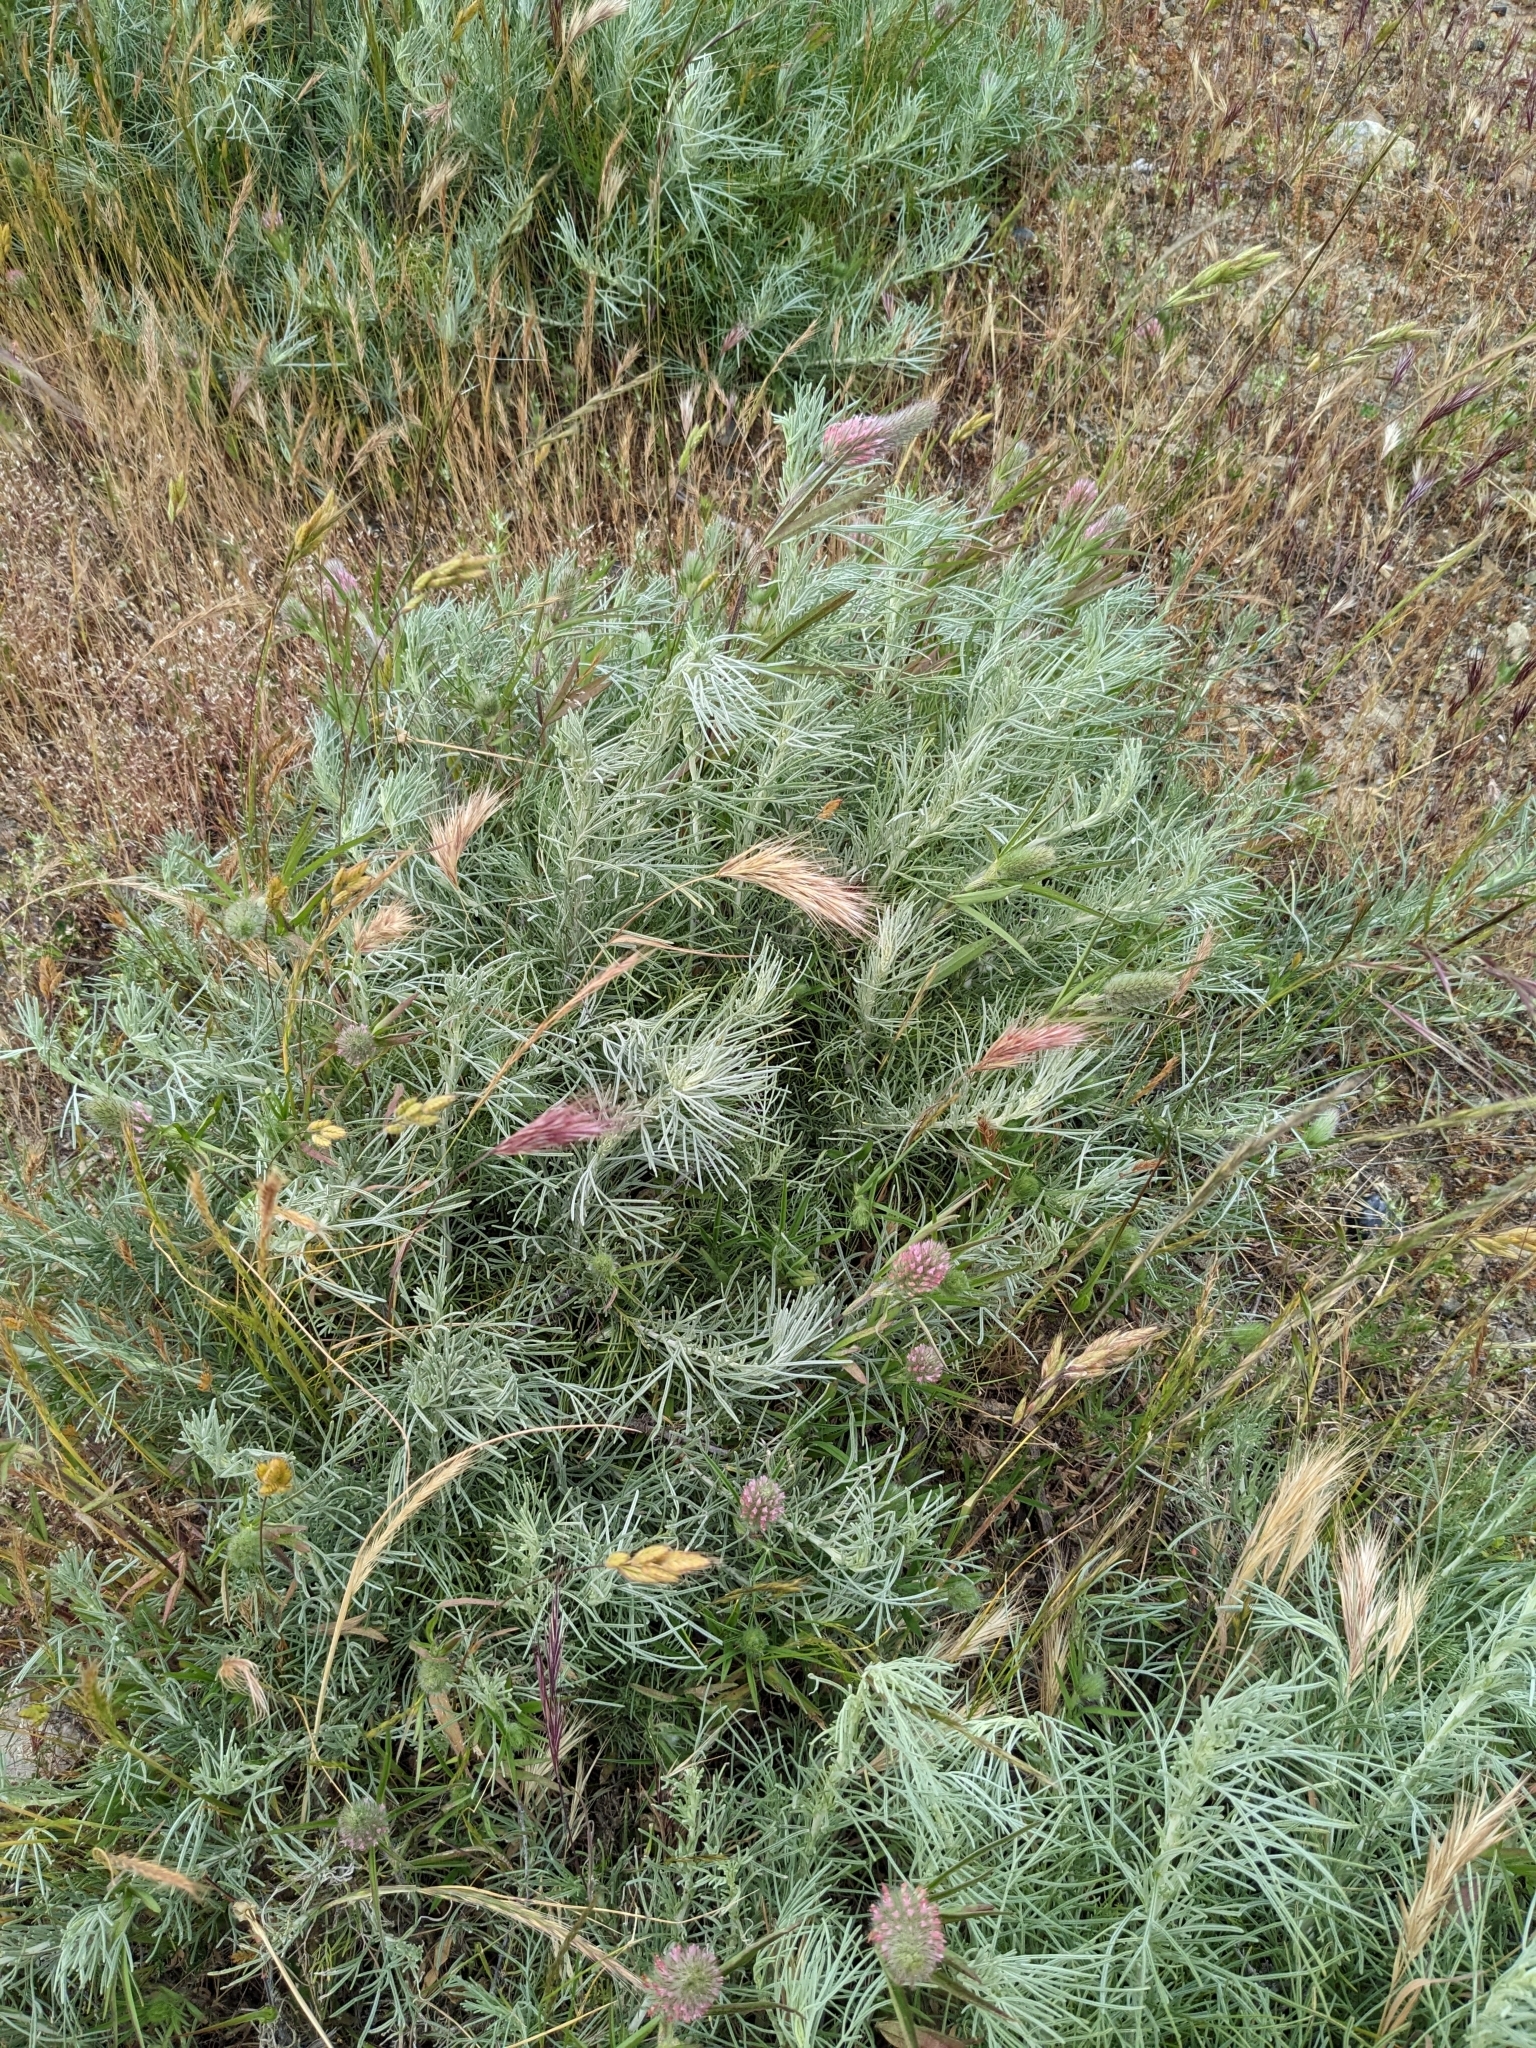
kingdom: Plantae
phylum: Tracheophyta
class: Magnoliopsida
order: Fabales
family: Fabaceae
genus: Trifolium
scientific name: Trifolium angustifolium
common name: Narrow clover
